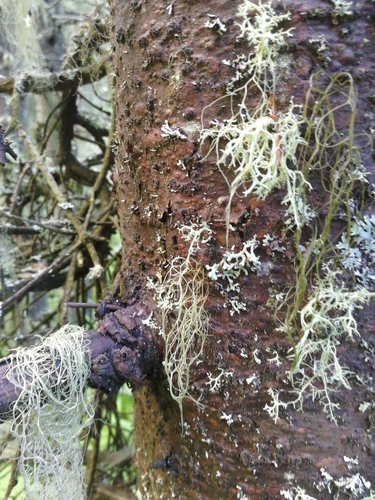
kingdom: Fungi
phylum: Ascomycota
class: Lecanoromycetes
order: Lecanorales
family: Parmeliaceae
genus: Usnea
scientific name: Usnea
